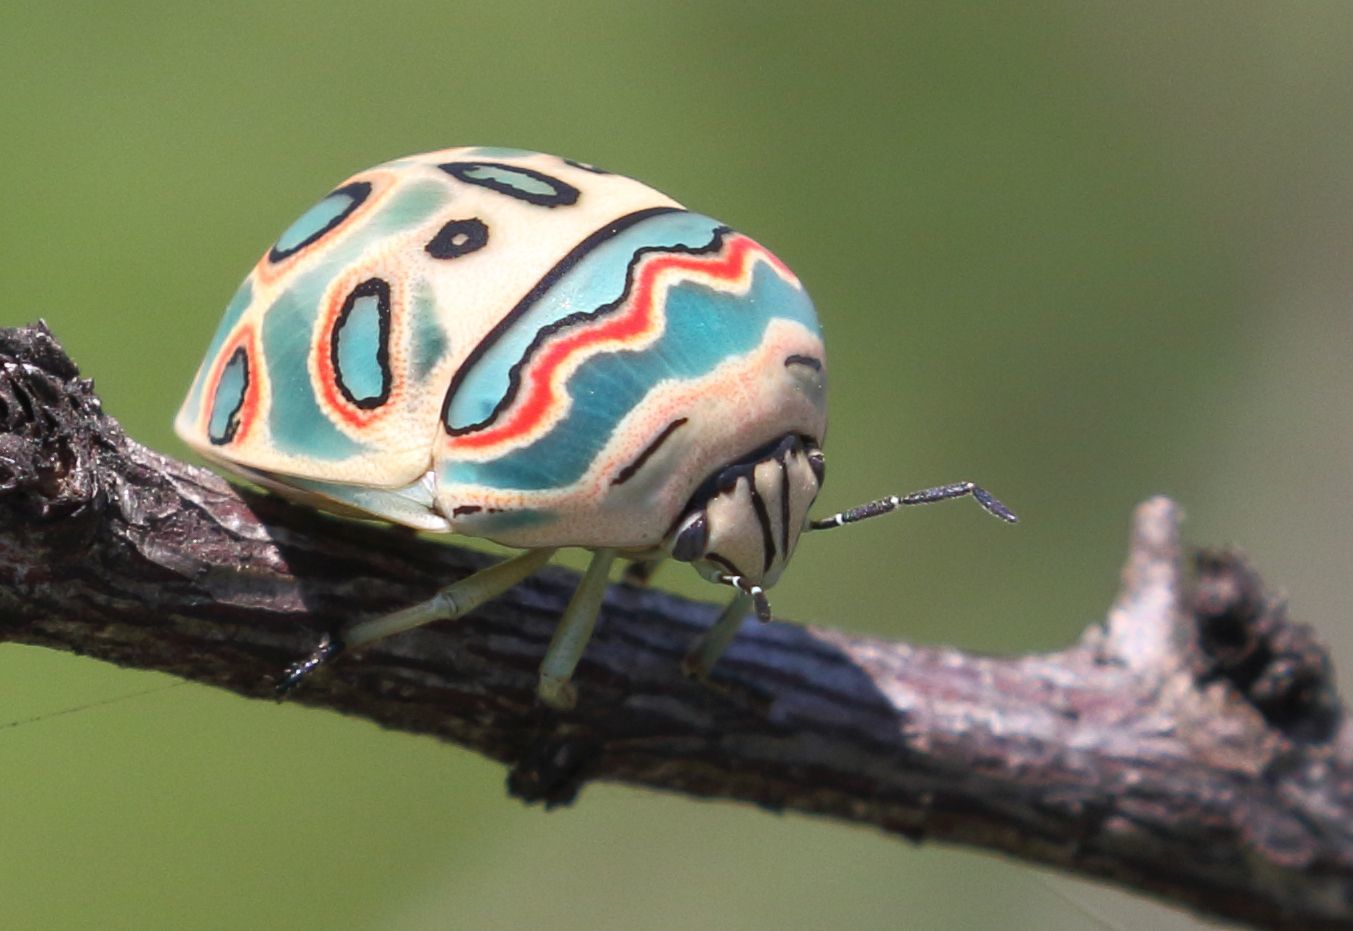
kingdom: Animalia
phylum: Arthropoda
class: Insecta
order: Hemiptera
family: Scutelleridae
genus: Sphaerocoris
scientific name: Sphaerocoris annulus
